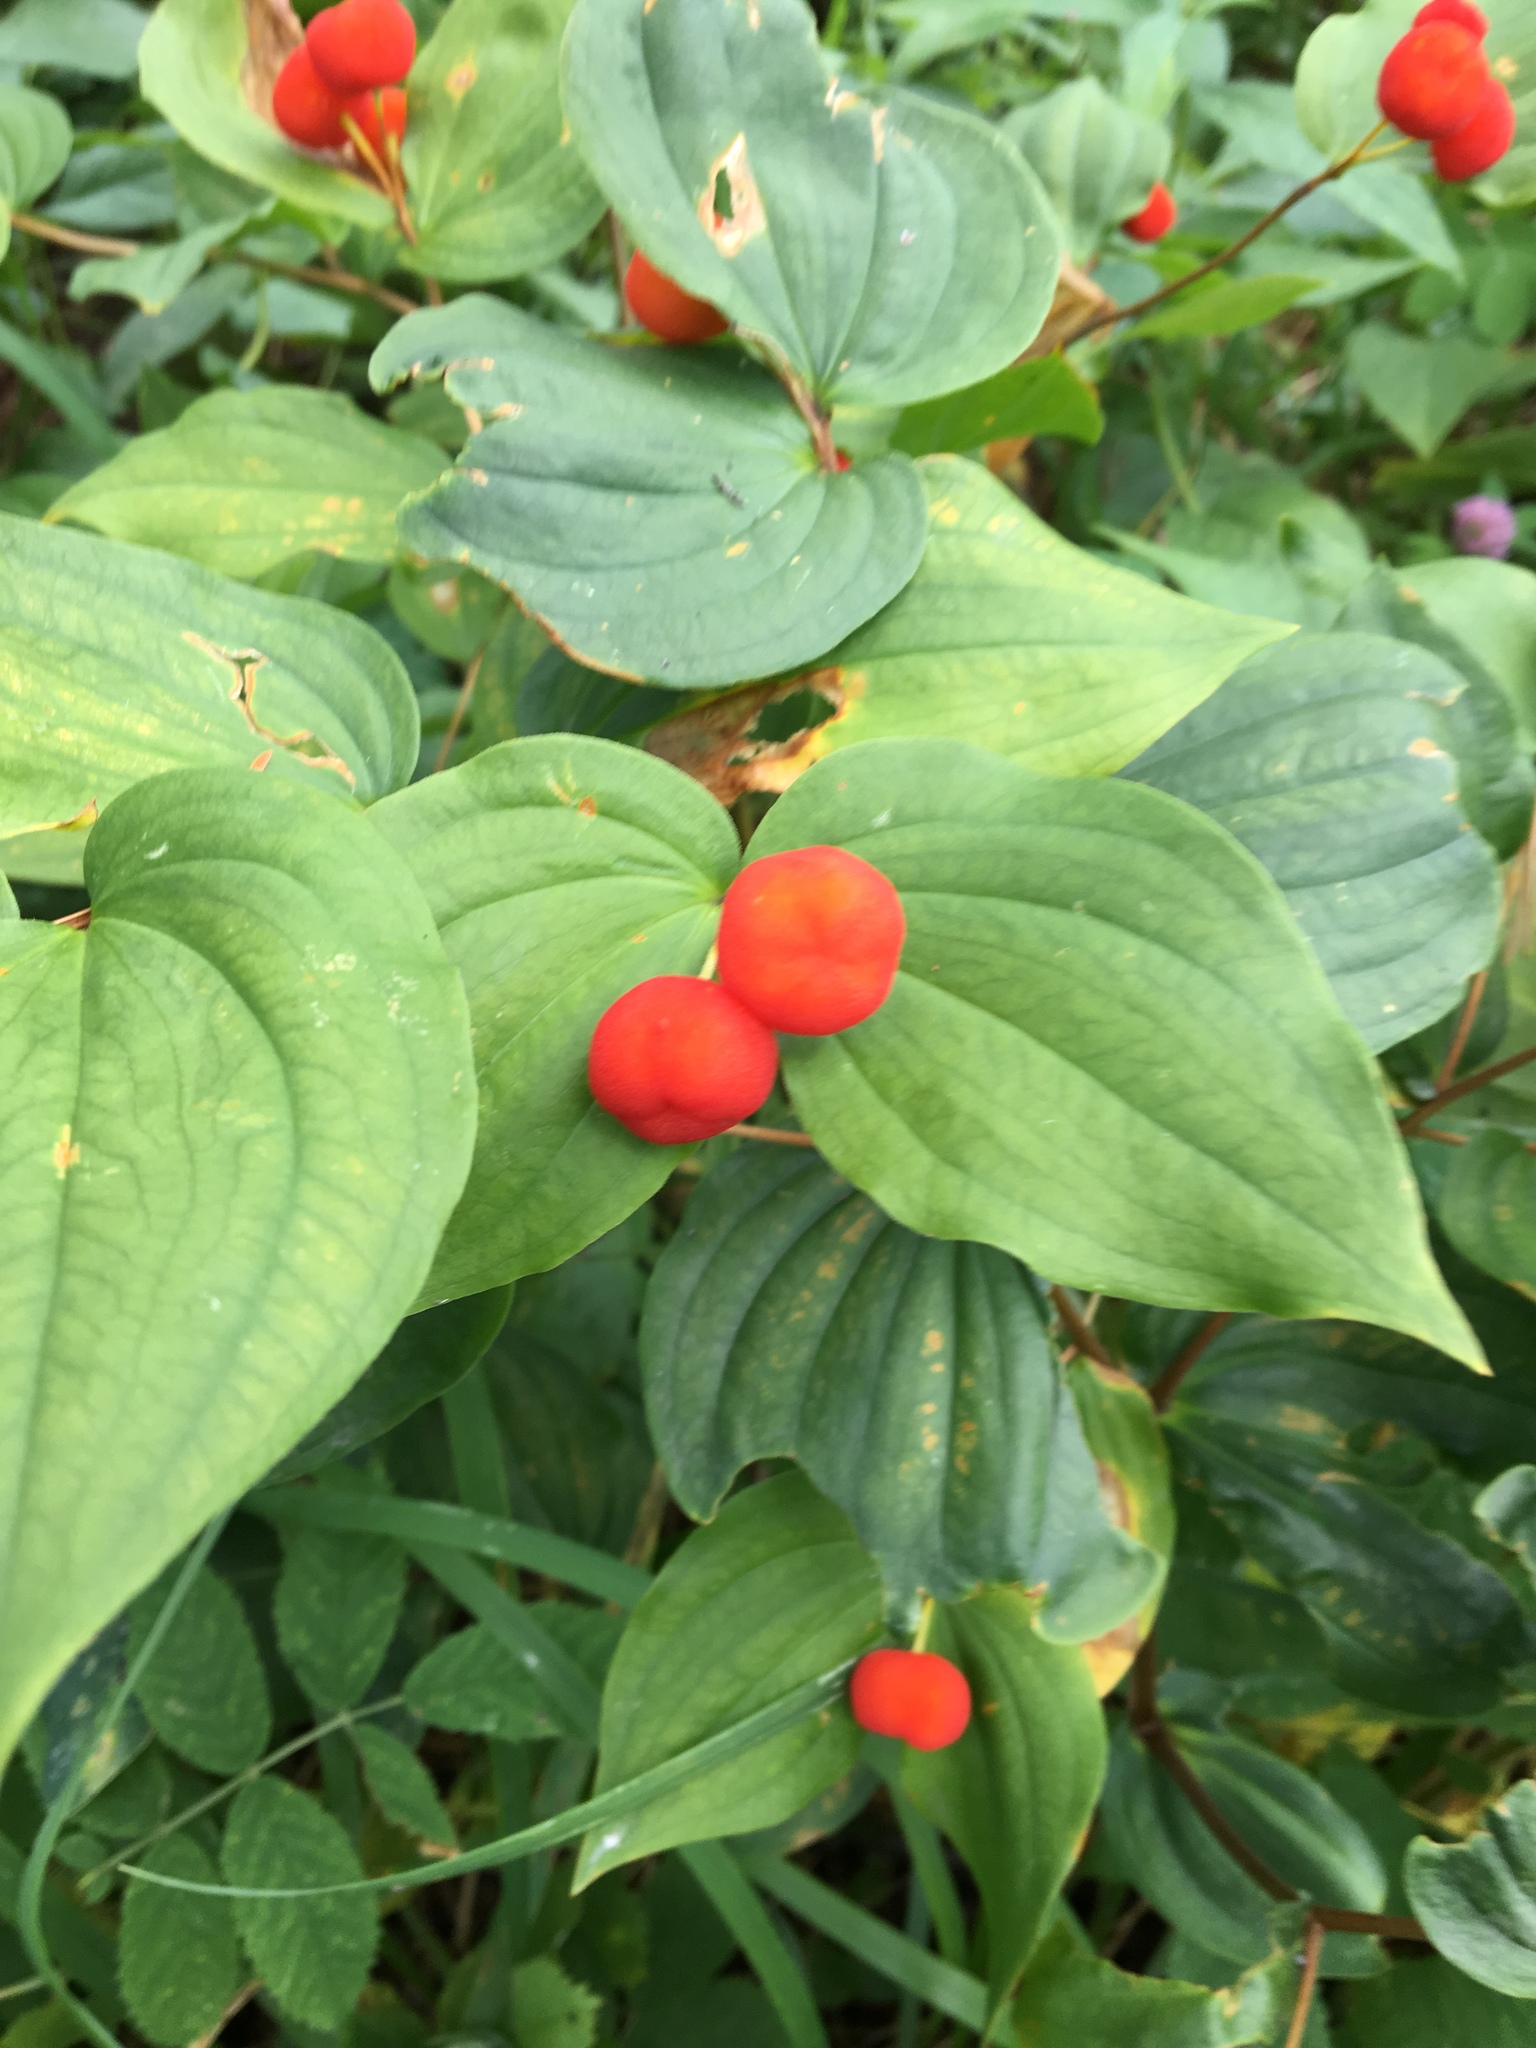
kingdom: Plantae
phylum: Tracheophyta
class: Liliopsida
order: Liliales
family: Liliaceae
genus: Prosartes
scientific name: Prosartes trachycarpa
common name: Rough-fruit fairy-bells
